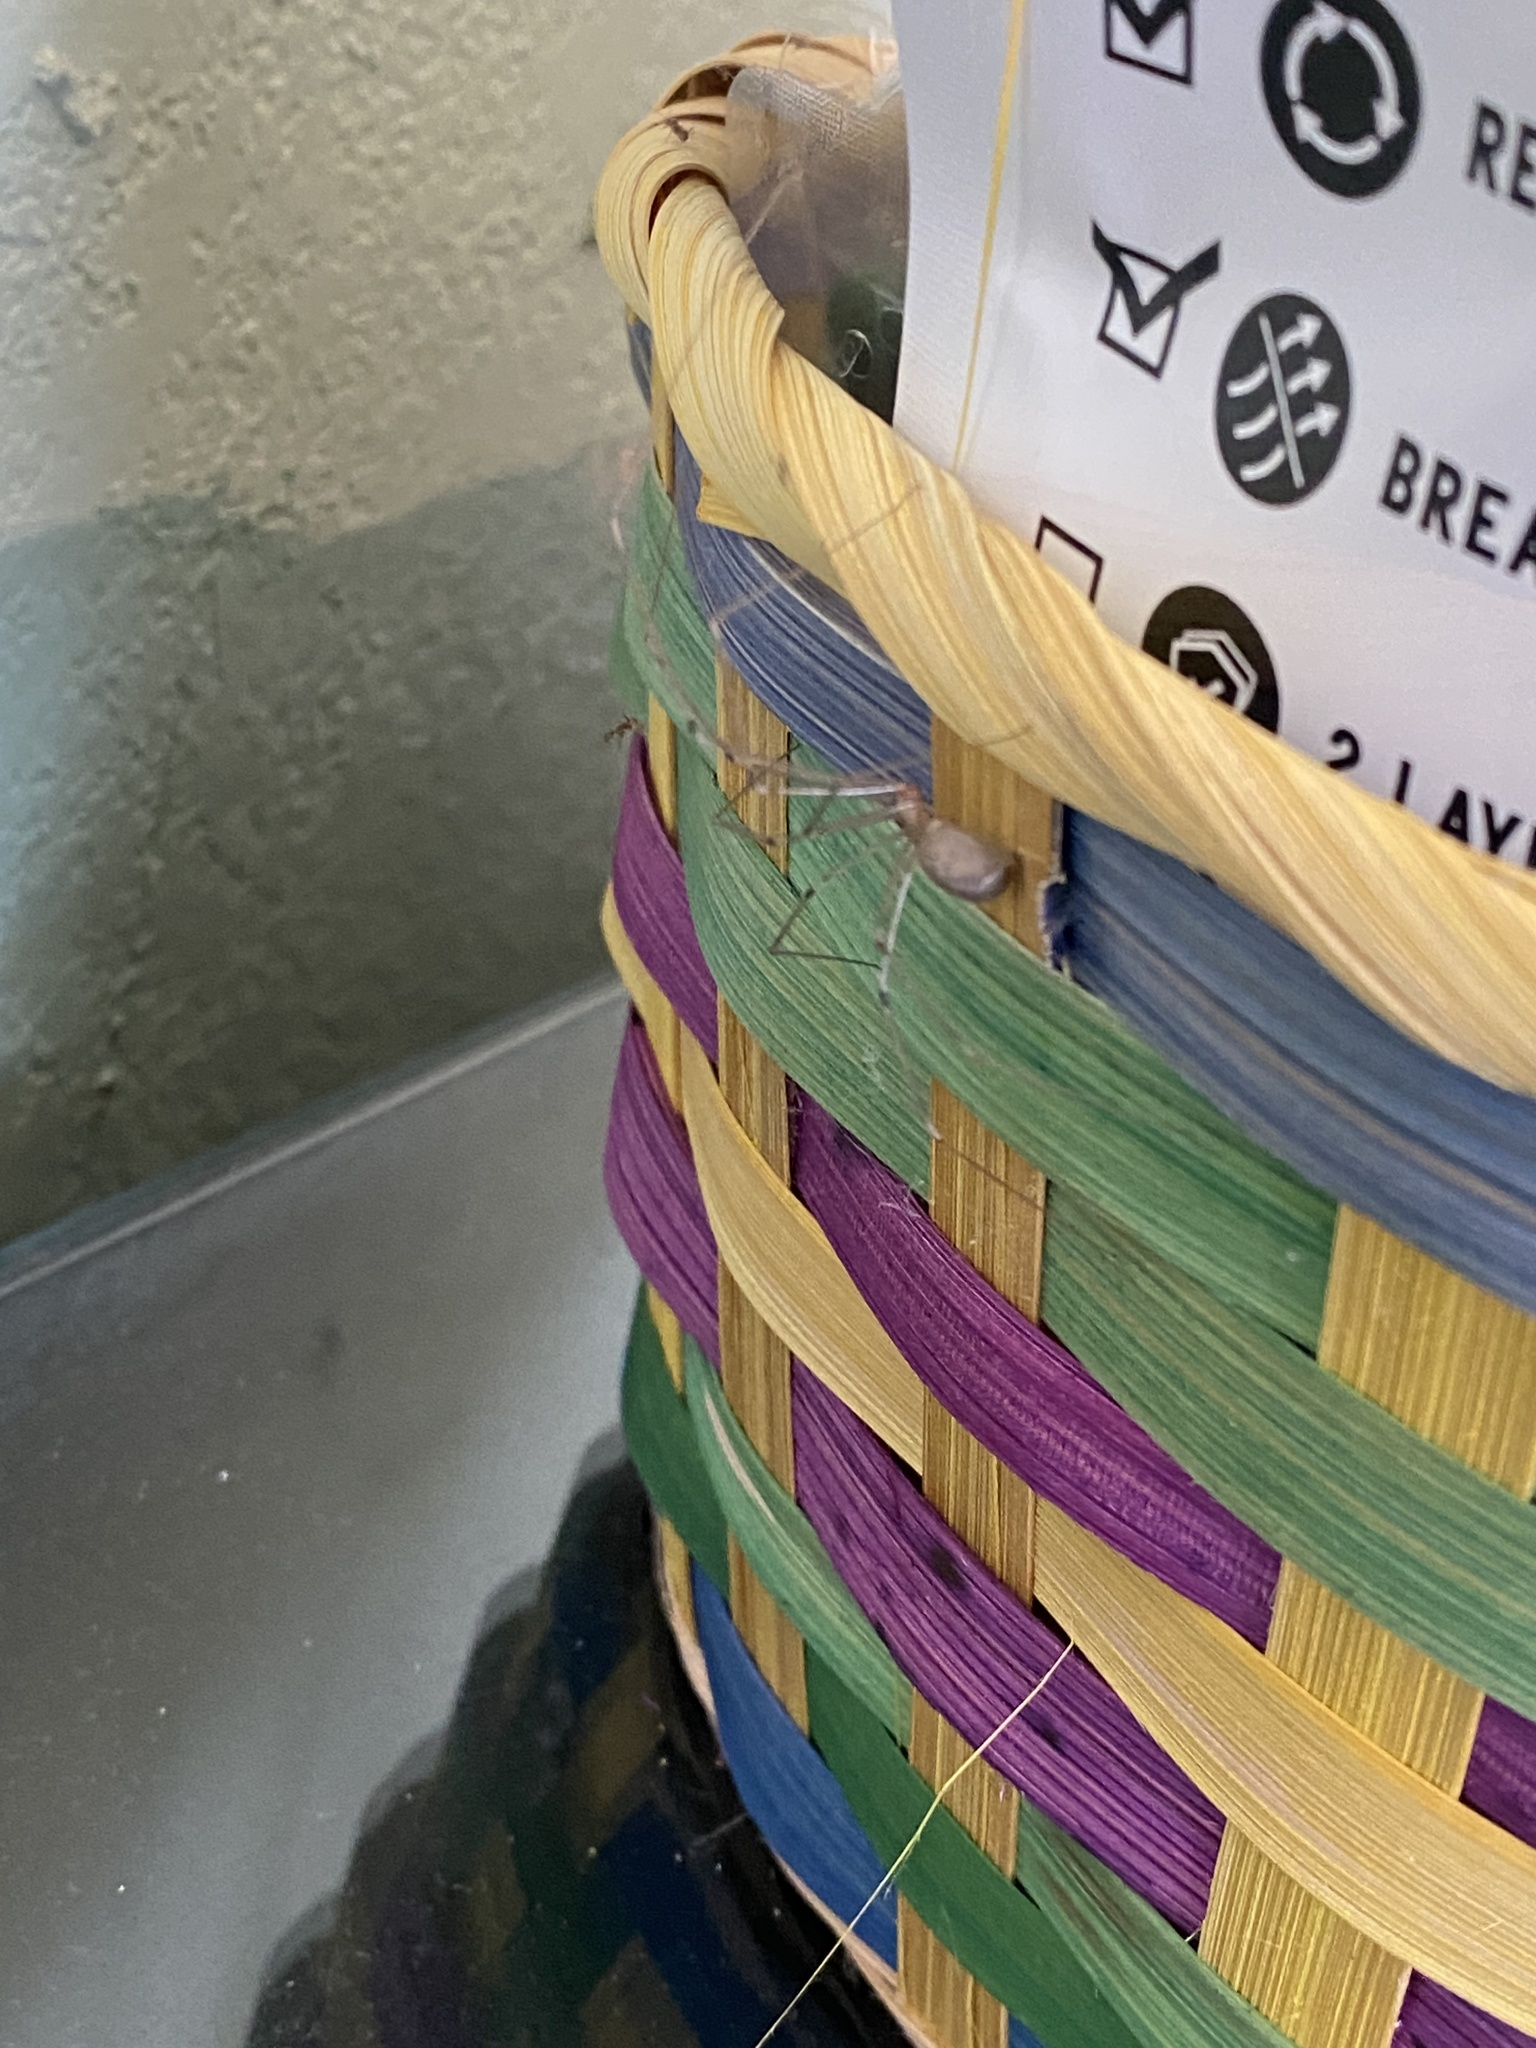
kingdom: Animalia
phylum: Arthropoda
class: Arachnida
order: Araneae
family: Pholcidae
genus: Pholcus
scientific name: Pholcus phalangioides
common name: Longbodied cellar spider
